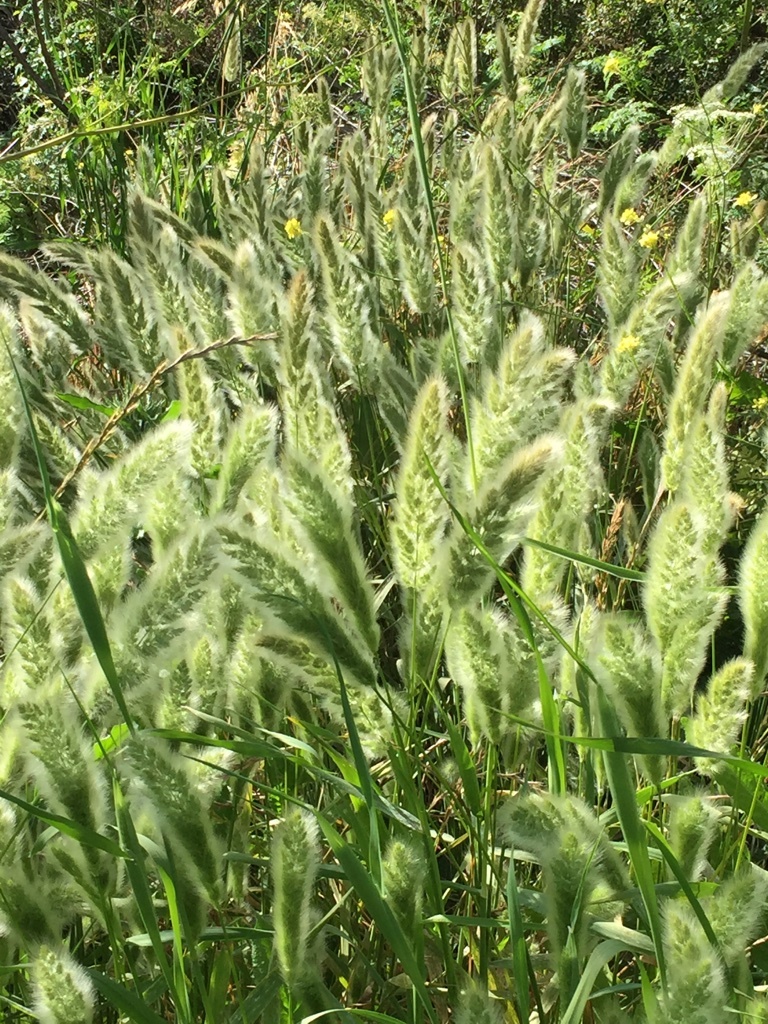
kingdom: Plantae
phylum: Tracheophyta
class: Liliopsida
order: Poales
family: Poaceae
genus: Polypogon
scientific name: Polypogon monspeliensis
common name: Annual rabbitsfoot grass
